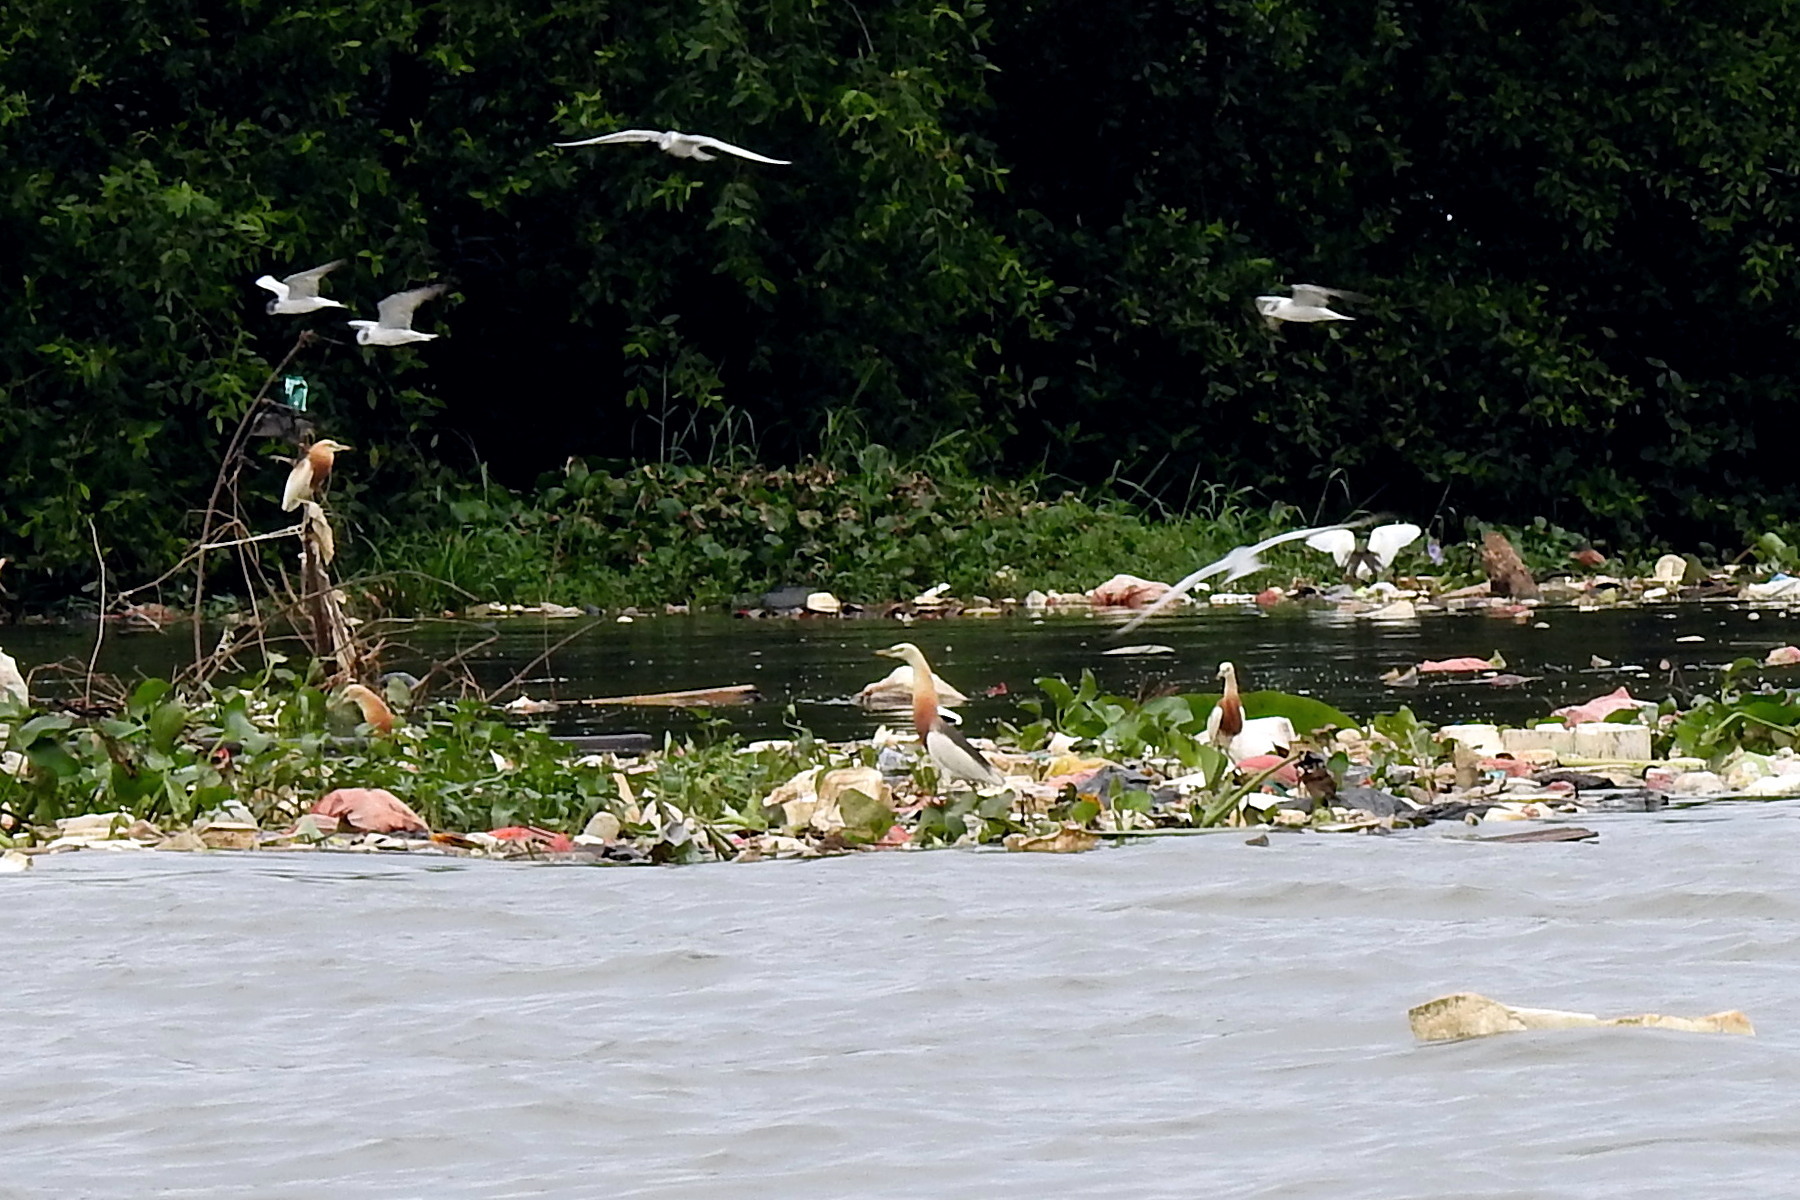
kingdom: Animalia
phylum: Chordata
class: Aves
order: Pelecaniformes
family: Ardeidae
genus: Ardeola
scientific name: Ardeola speciosa
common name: Javan pond heron
